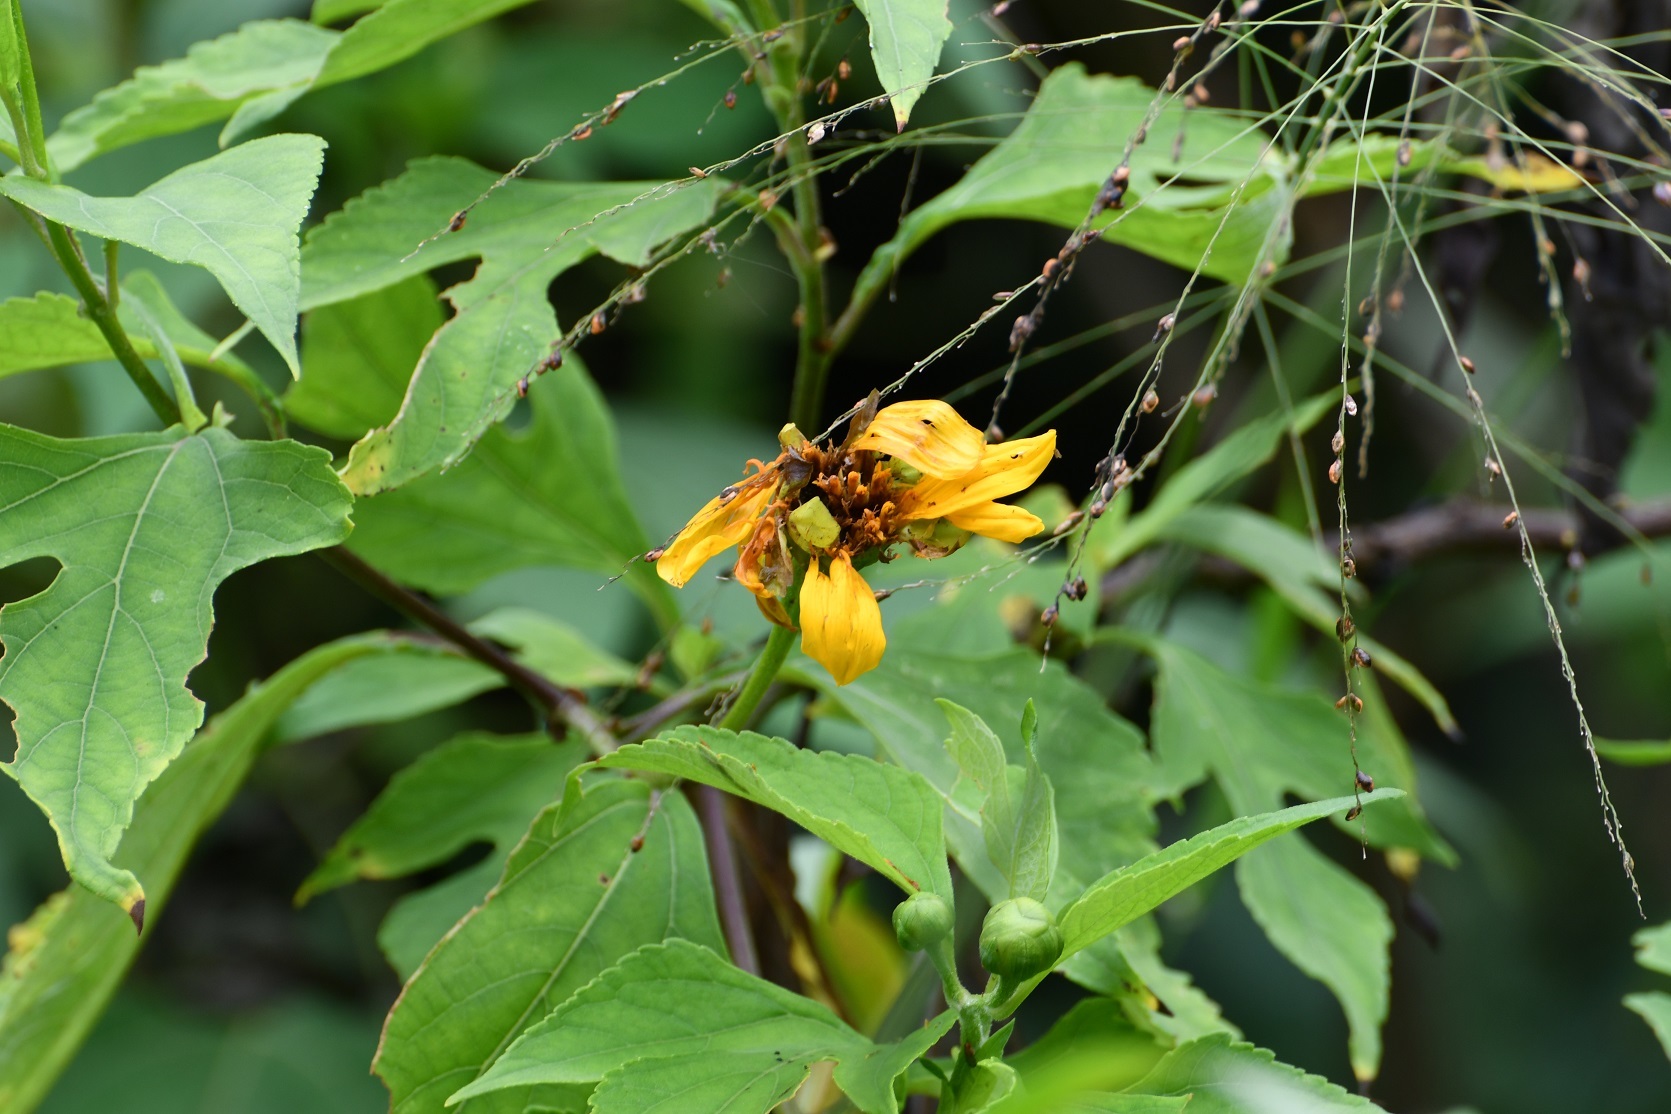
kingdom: Plantae
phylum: Tracheophyta
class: Magnoliopsida
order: Asterales
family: Asteraceae
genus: Lasianthaea
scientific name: Lasianthaea fruticosa
